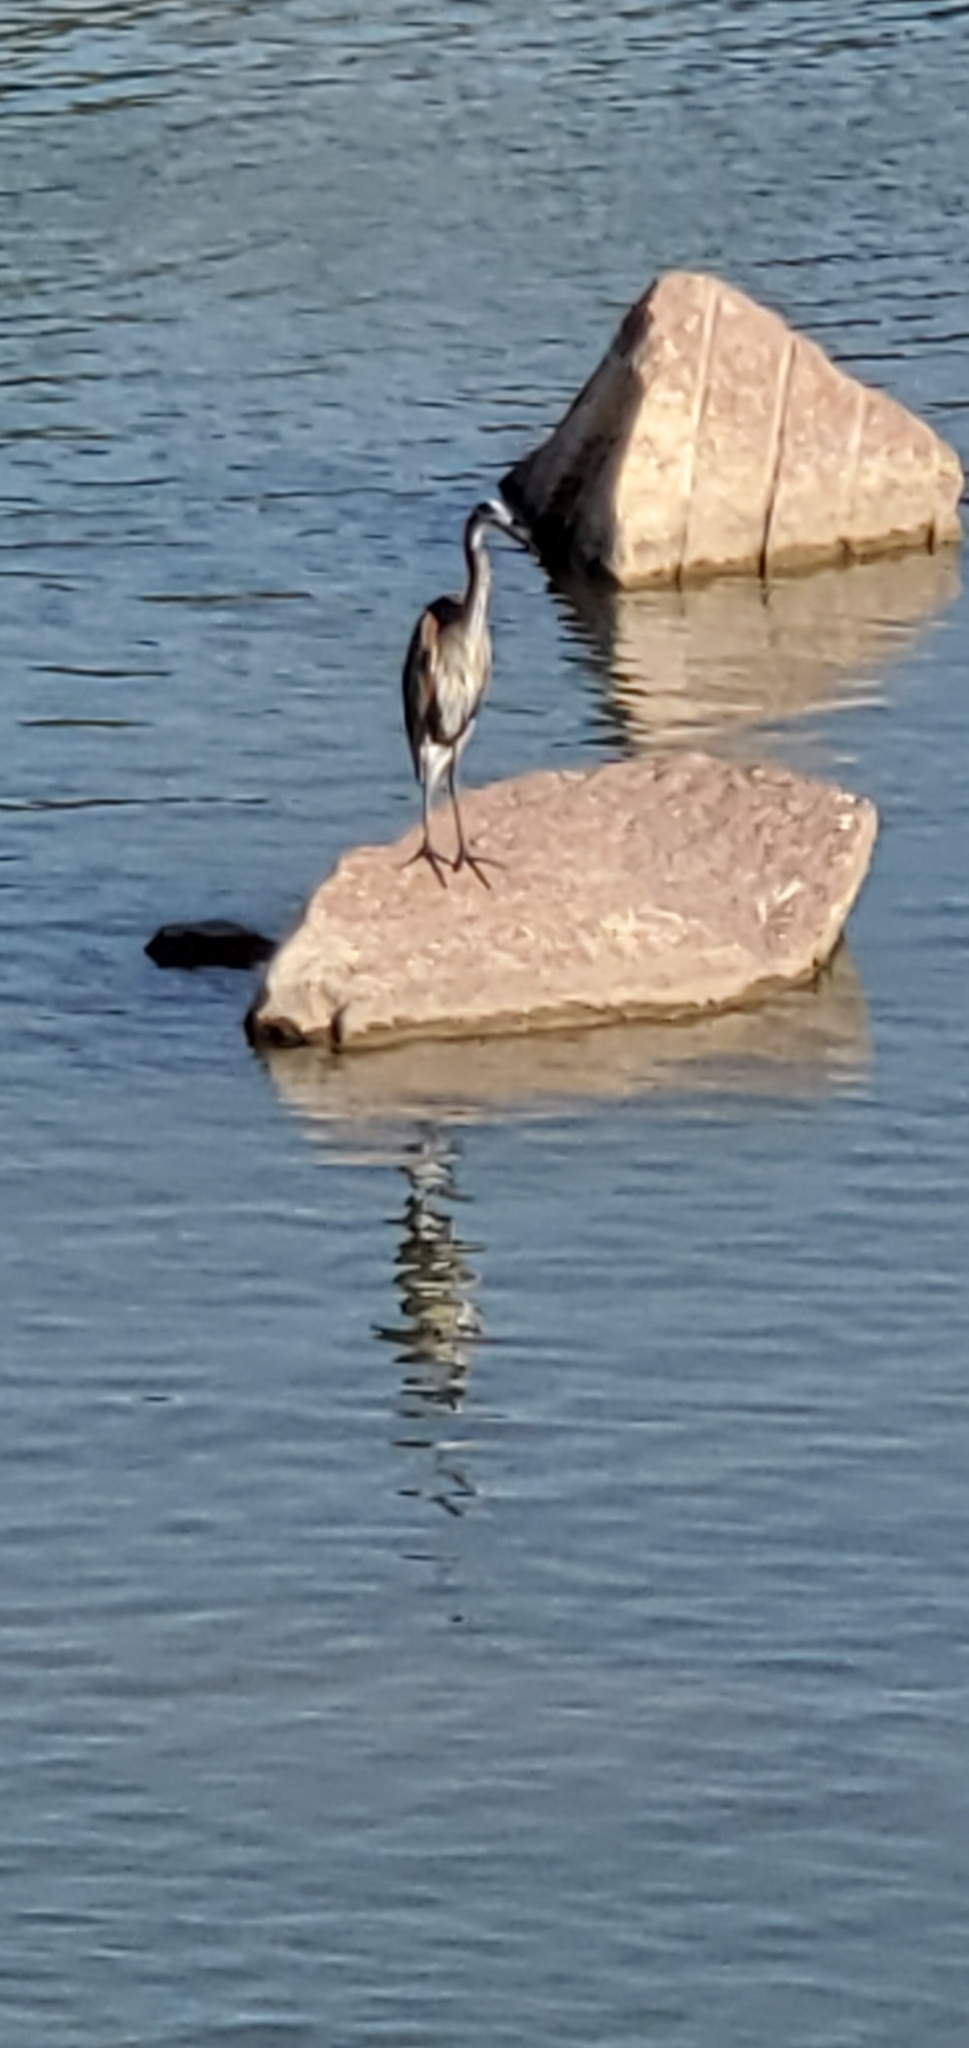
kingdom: Animalia
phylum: Chordata
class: Aves
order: Pelecaniformes
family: Ardeidae
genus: Ardea
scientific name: Ardea herodias
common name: Great blue heron
